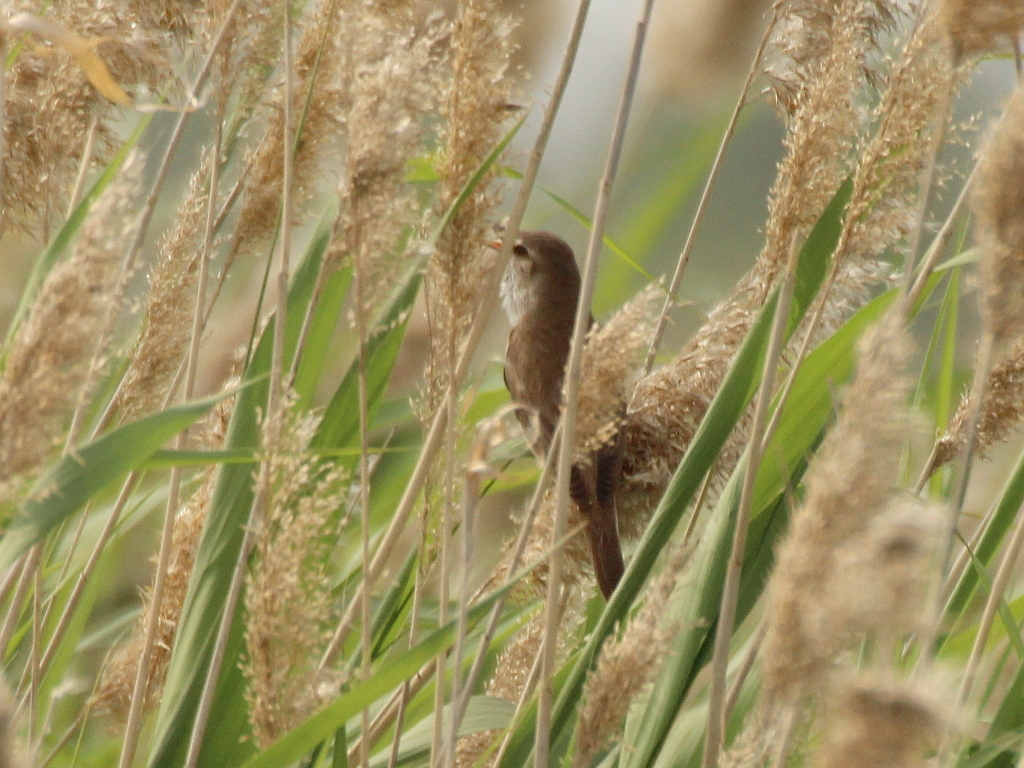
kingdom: Animalia
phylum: Chordata
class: Aves
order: Passeriformes
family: Acrocephalidae
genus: Acrocephalus
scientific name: Acrocephalus arundinaceus
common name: Great reed warbler
